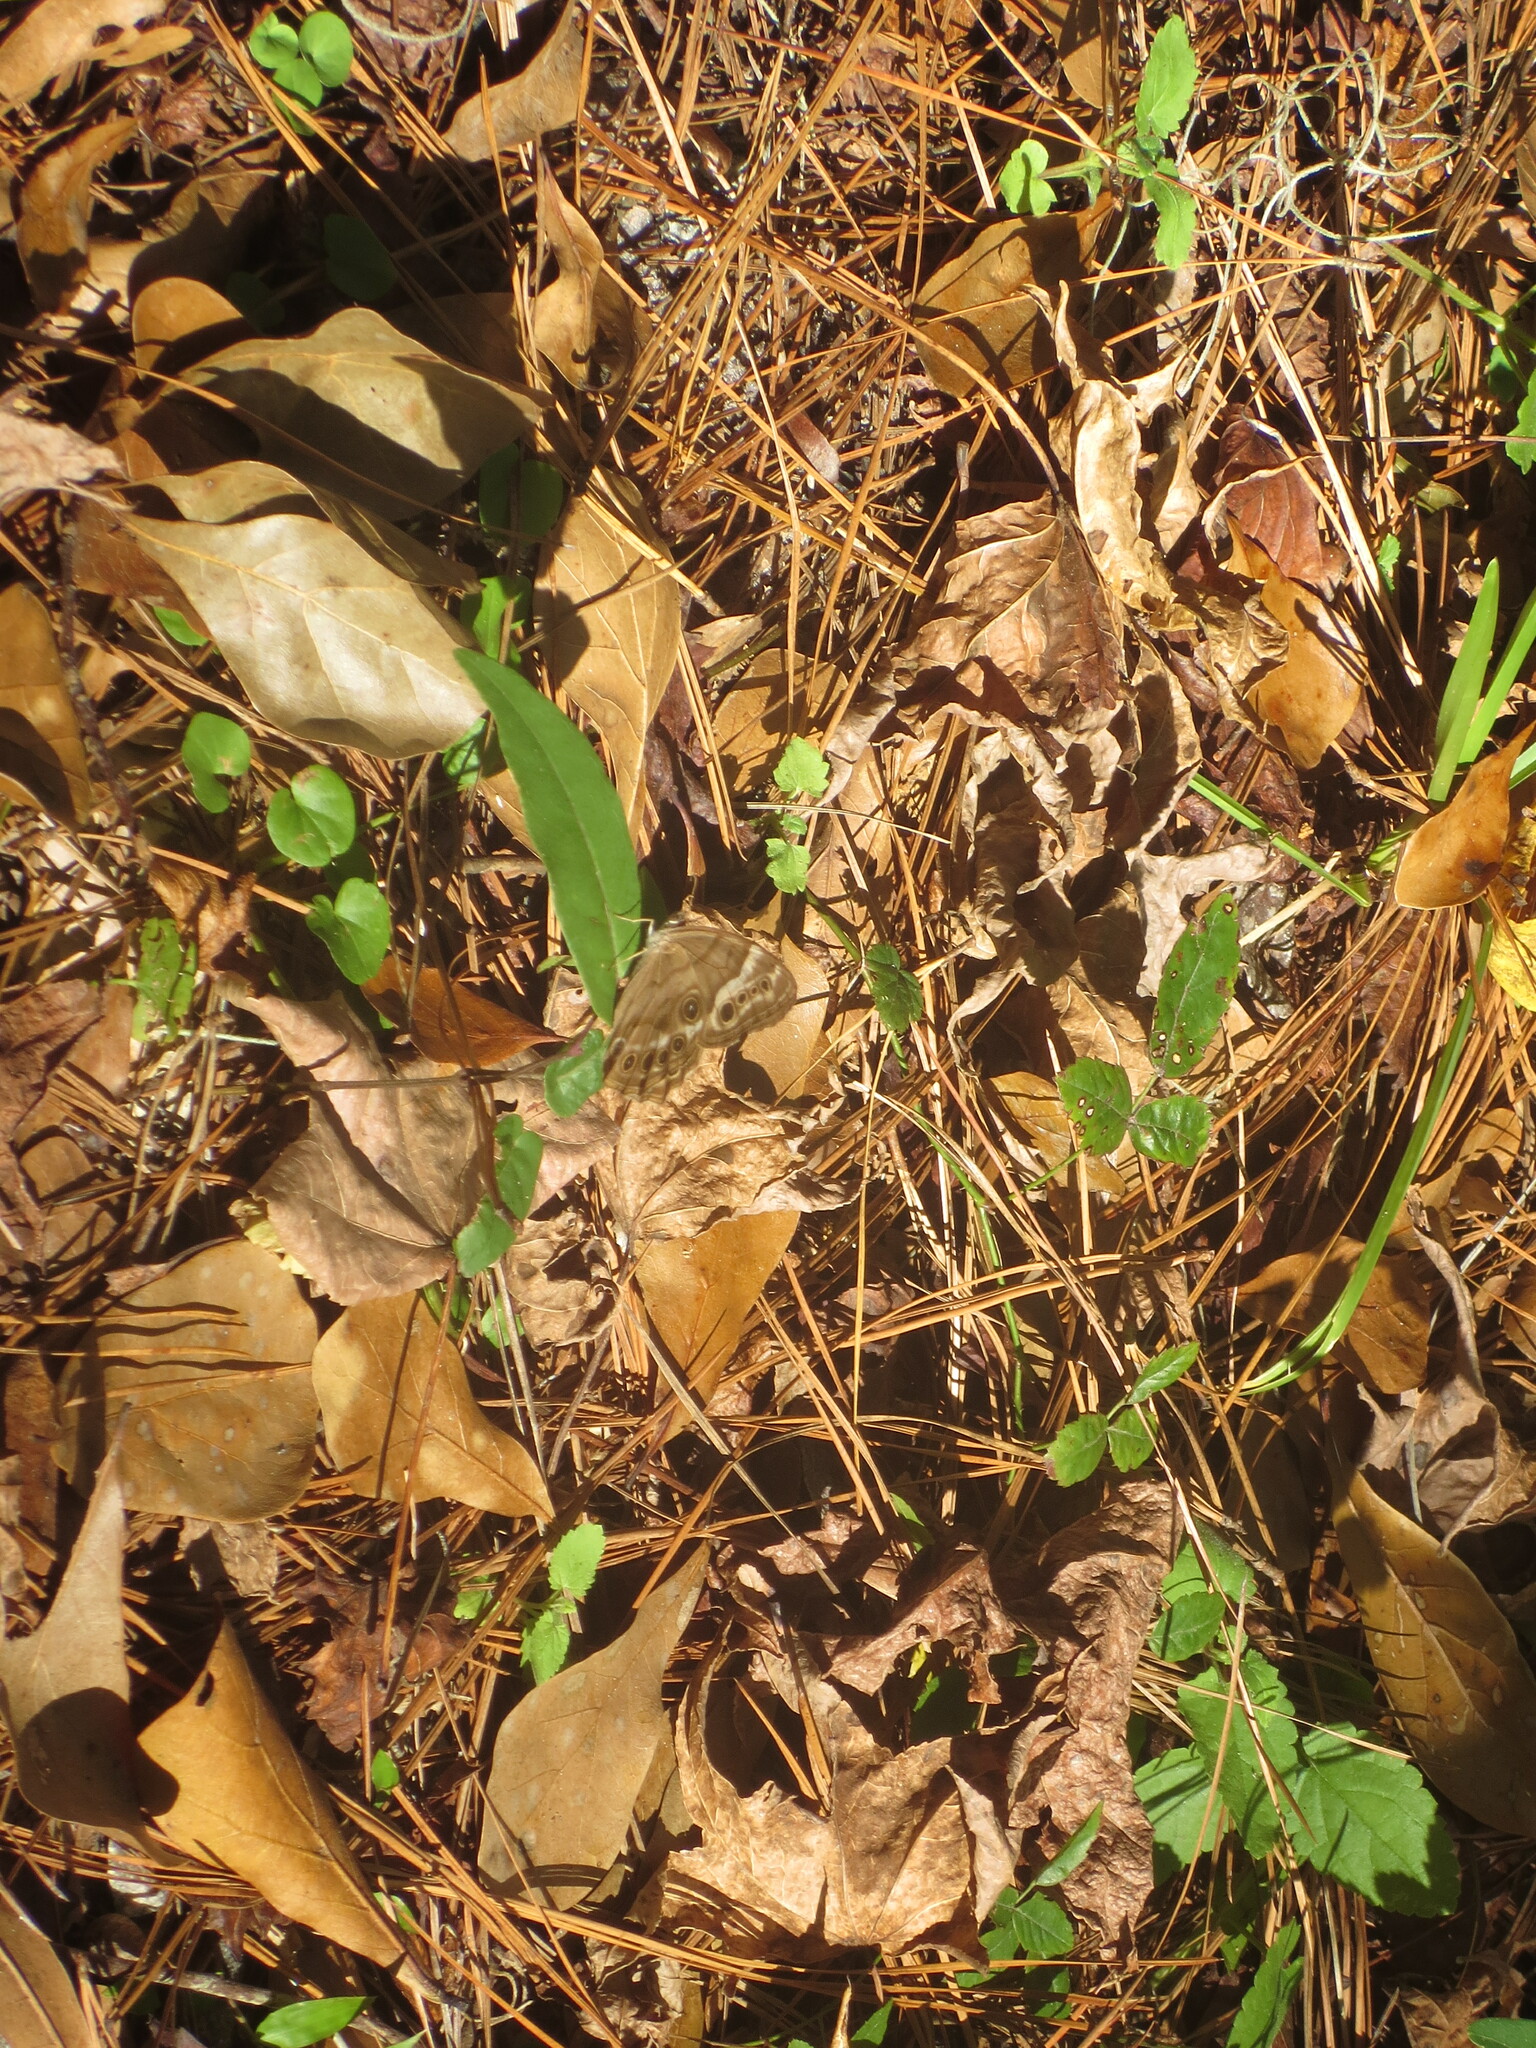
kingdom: Animalia
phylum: Arthropoda
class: Insecta
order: Lepidoptera
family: Nymphalidae
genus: Enodia
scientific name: Enodia portlandia
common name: Southern pearly-eye
